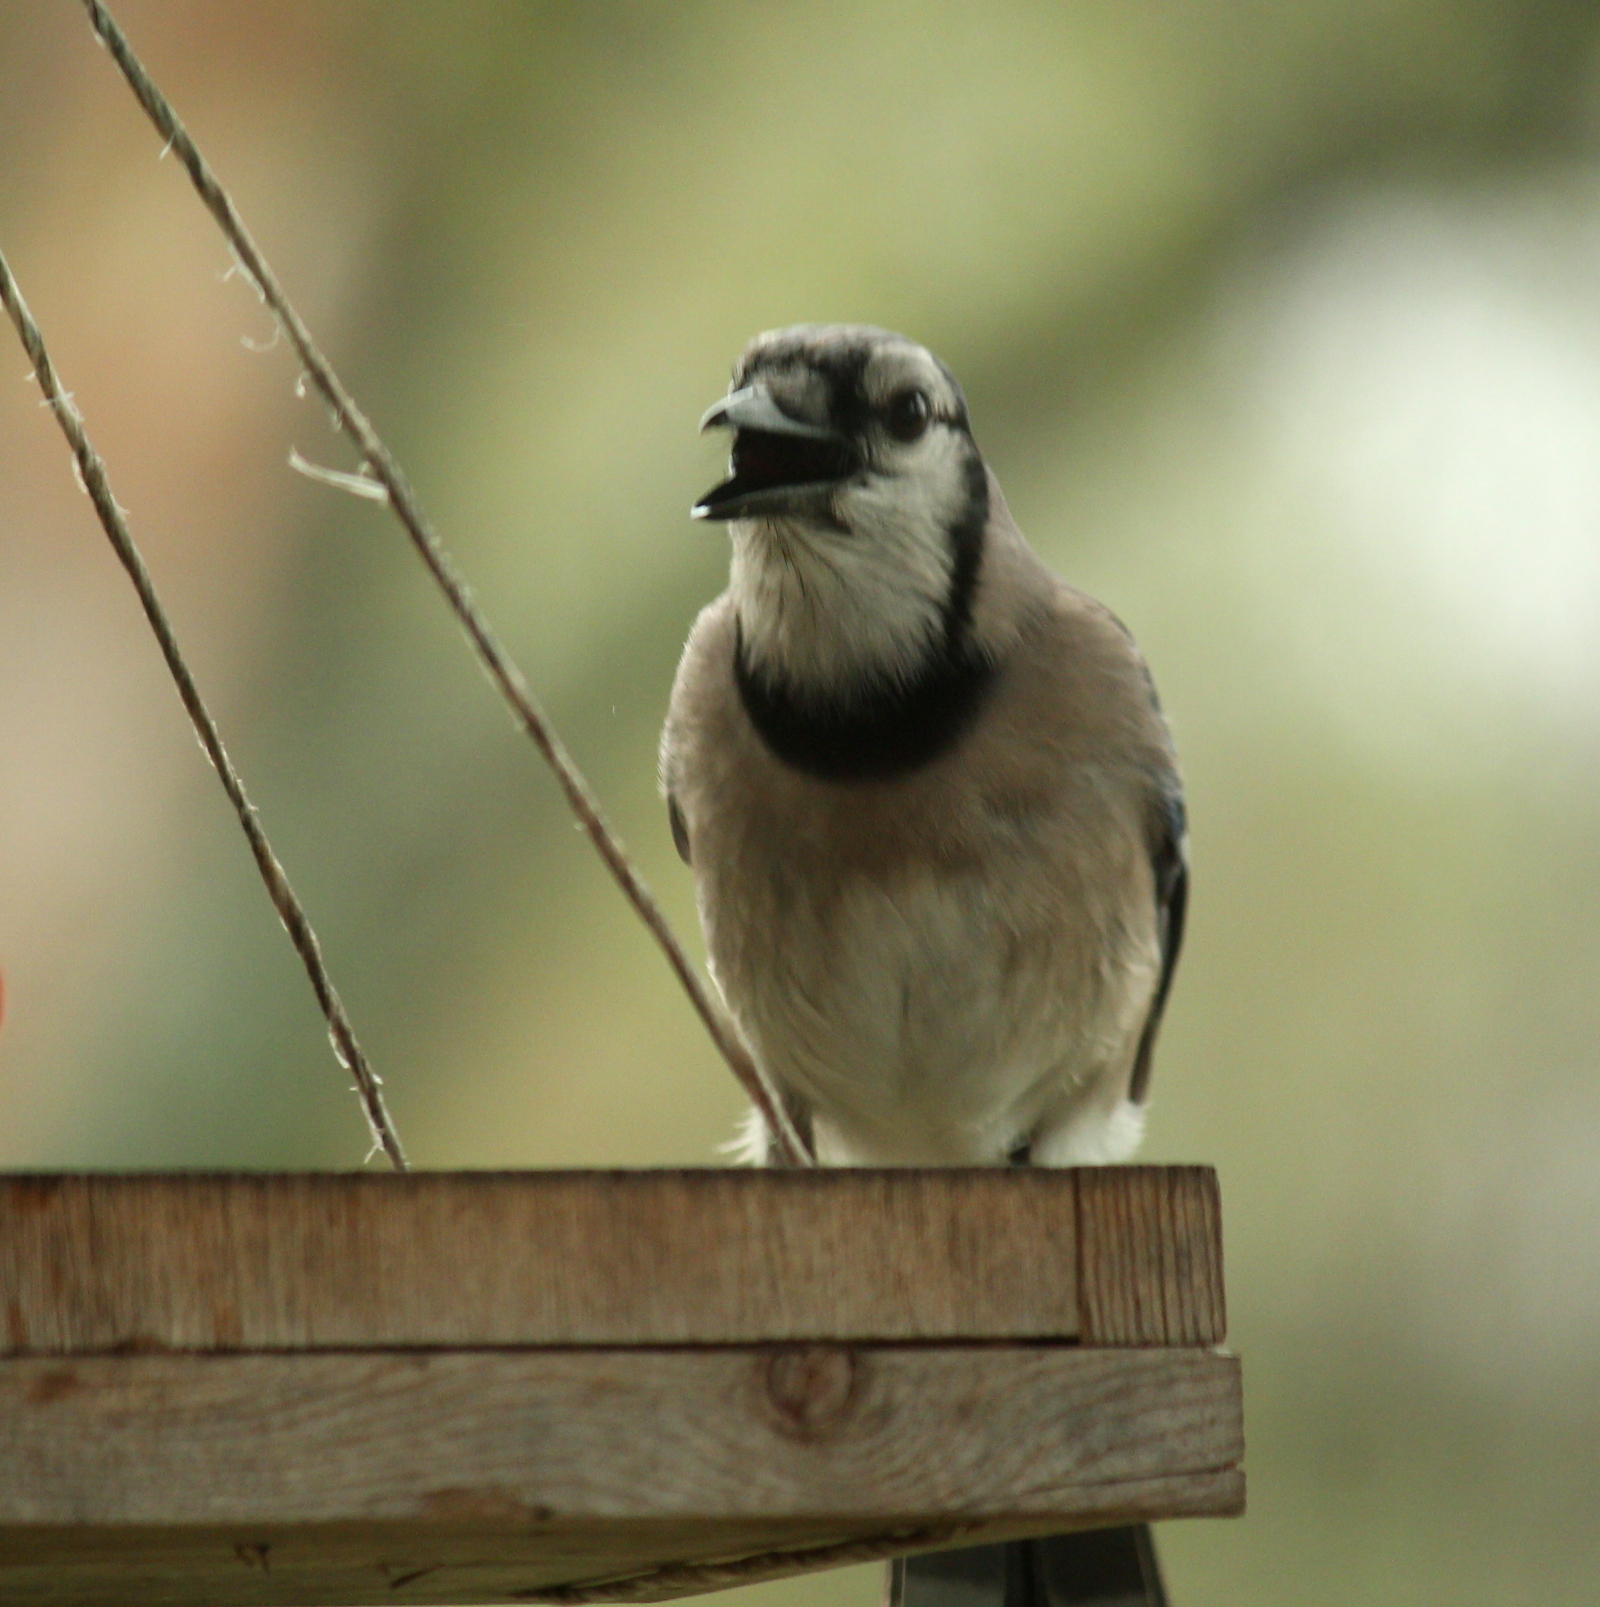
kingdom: Animalia
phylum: Chordata
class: Aves
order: Passeriformes
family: Corvidae
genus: Cyanocitta
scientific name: Cyanocitta cristata
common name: Blue jay
